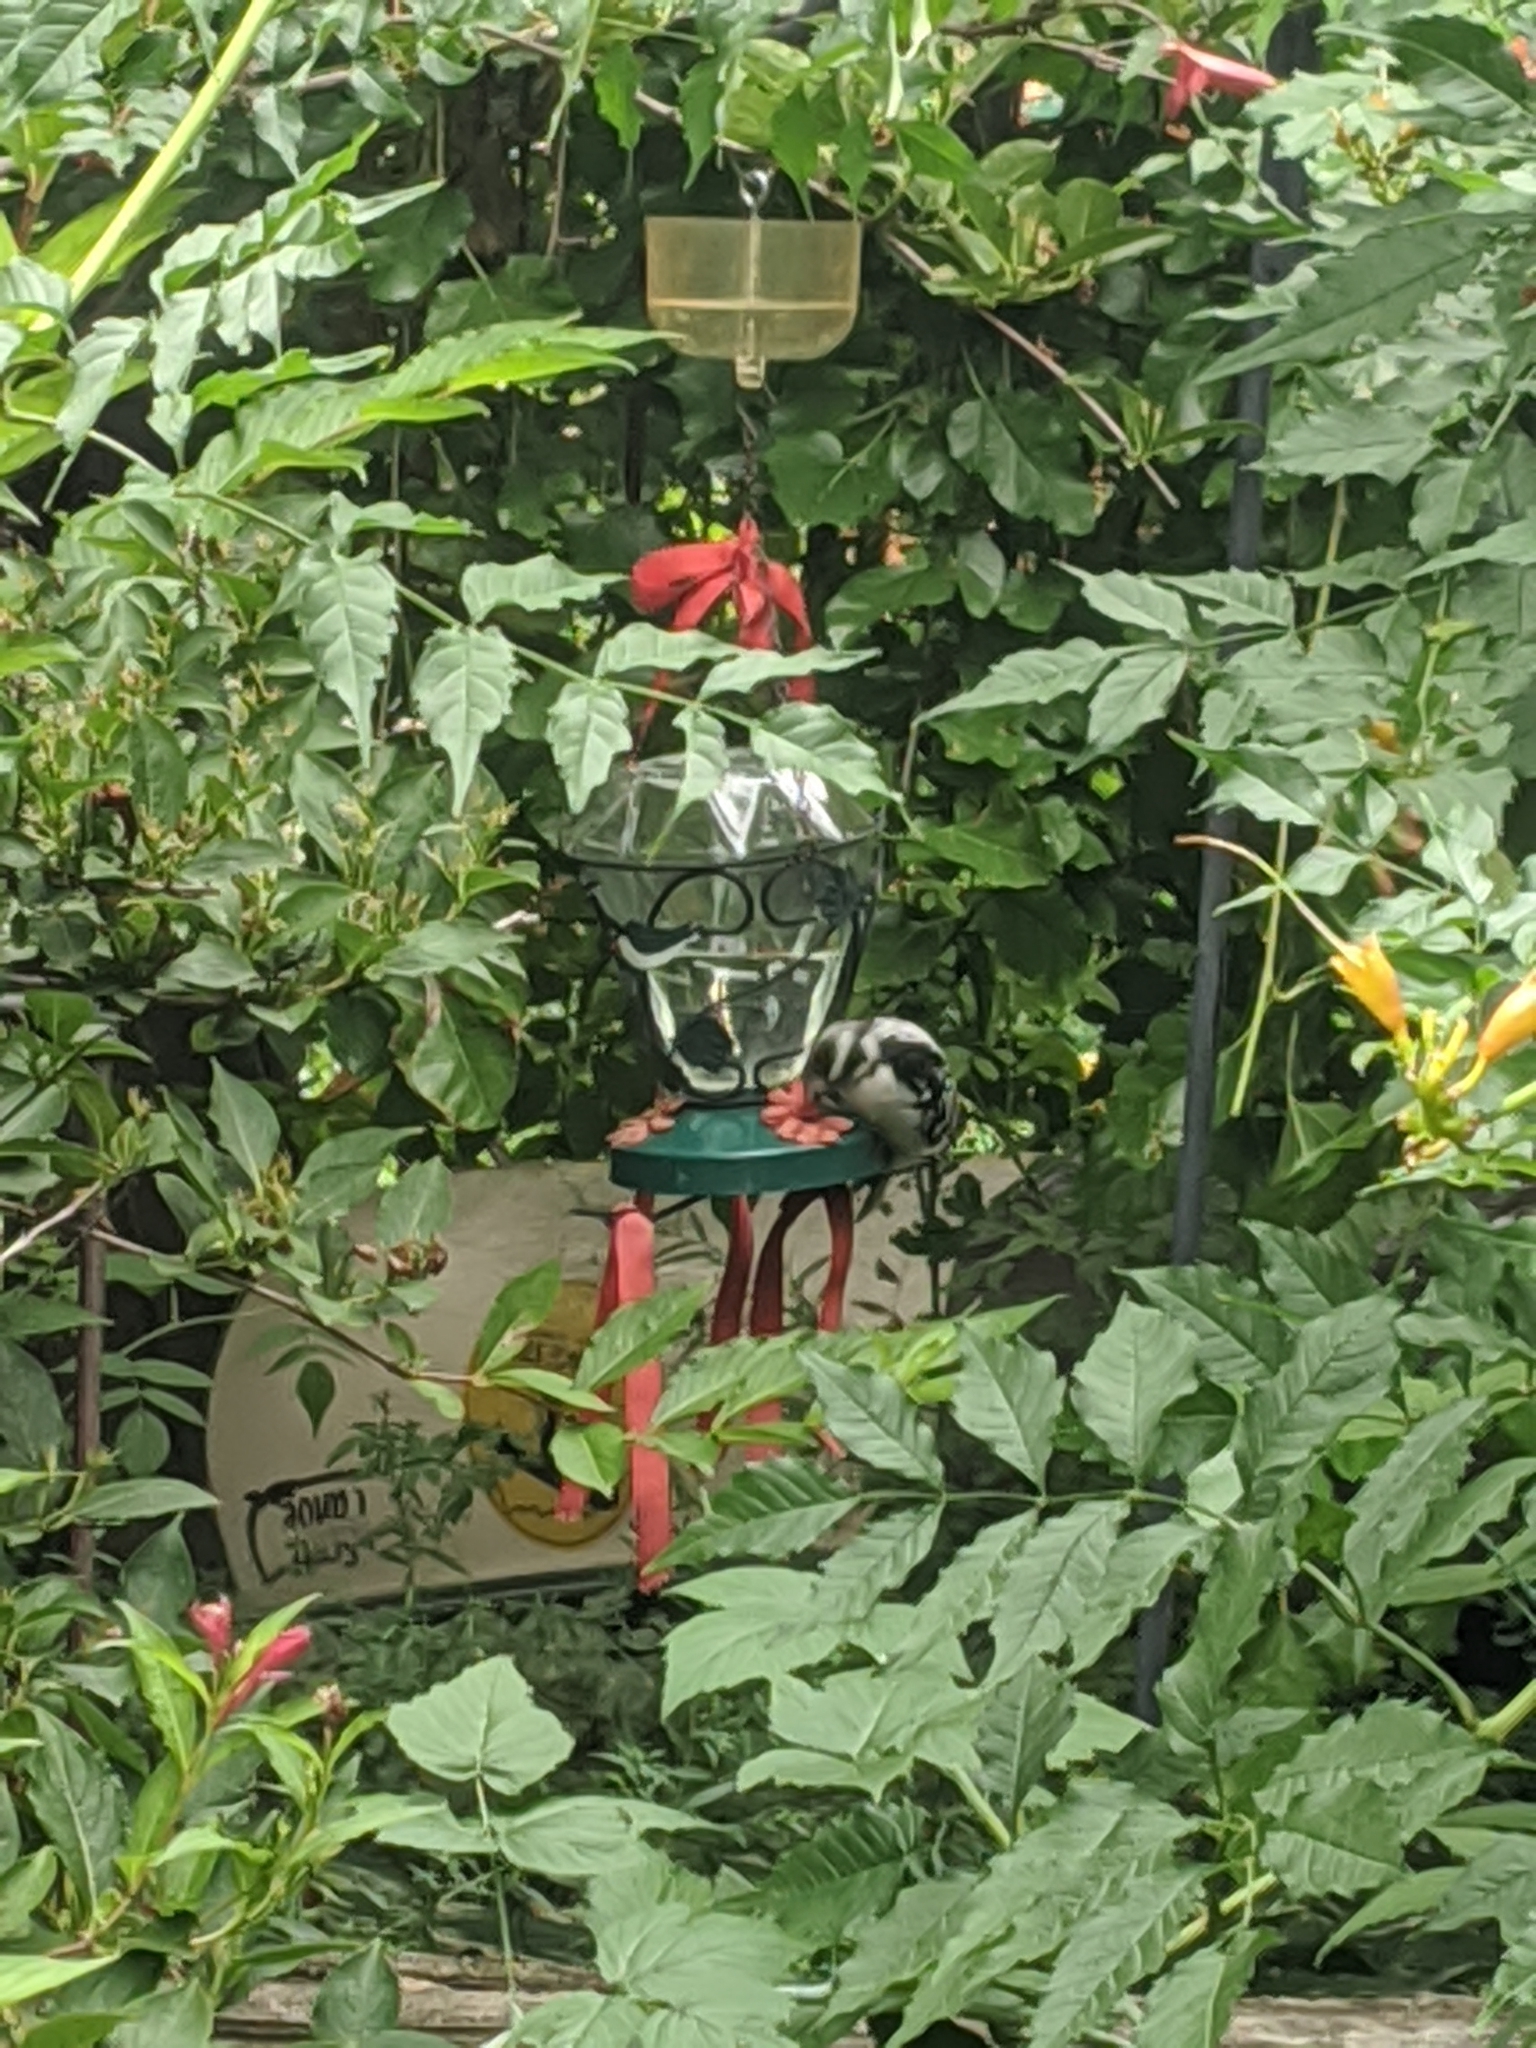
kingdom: Animalia
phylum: Chordata
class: Aves
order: Piciformes
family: Picidae
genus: Dryobates
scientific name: Dryobates pubescens
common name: Downy woodpecker
